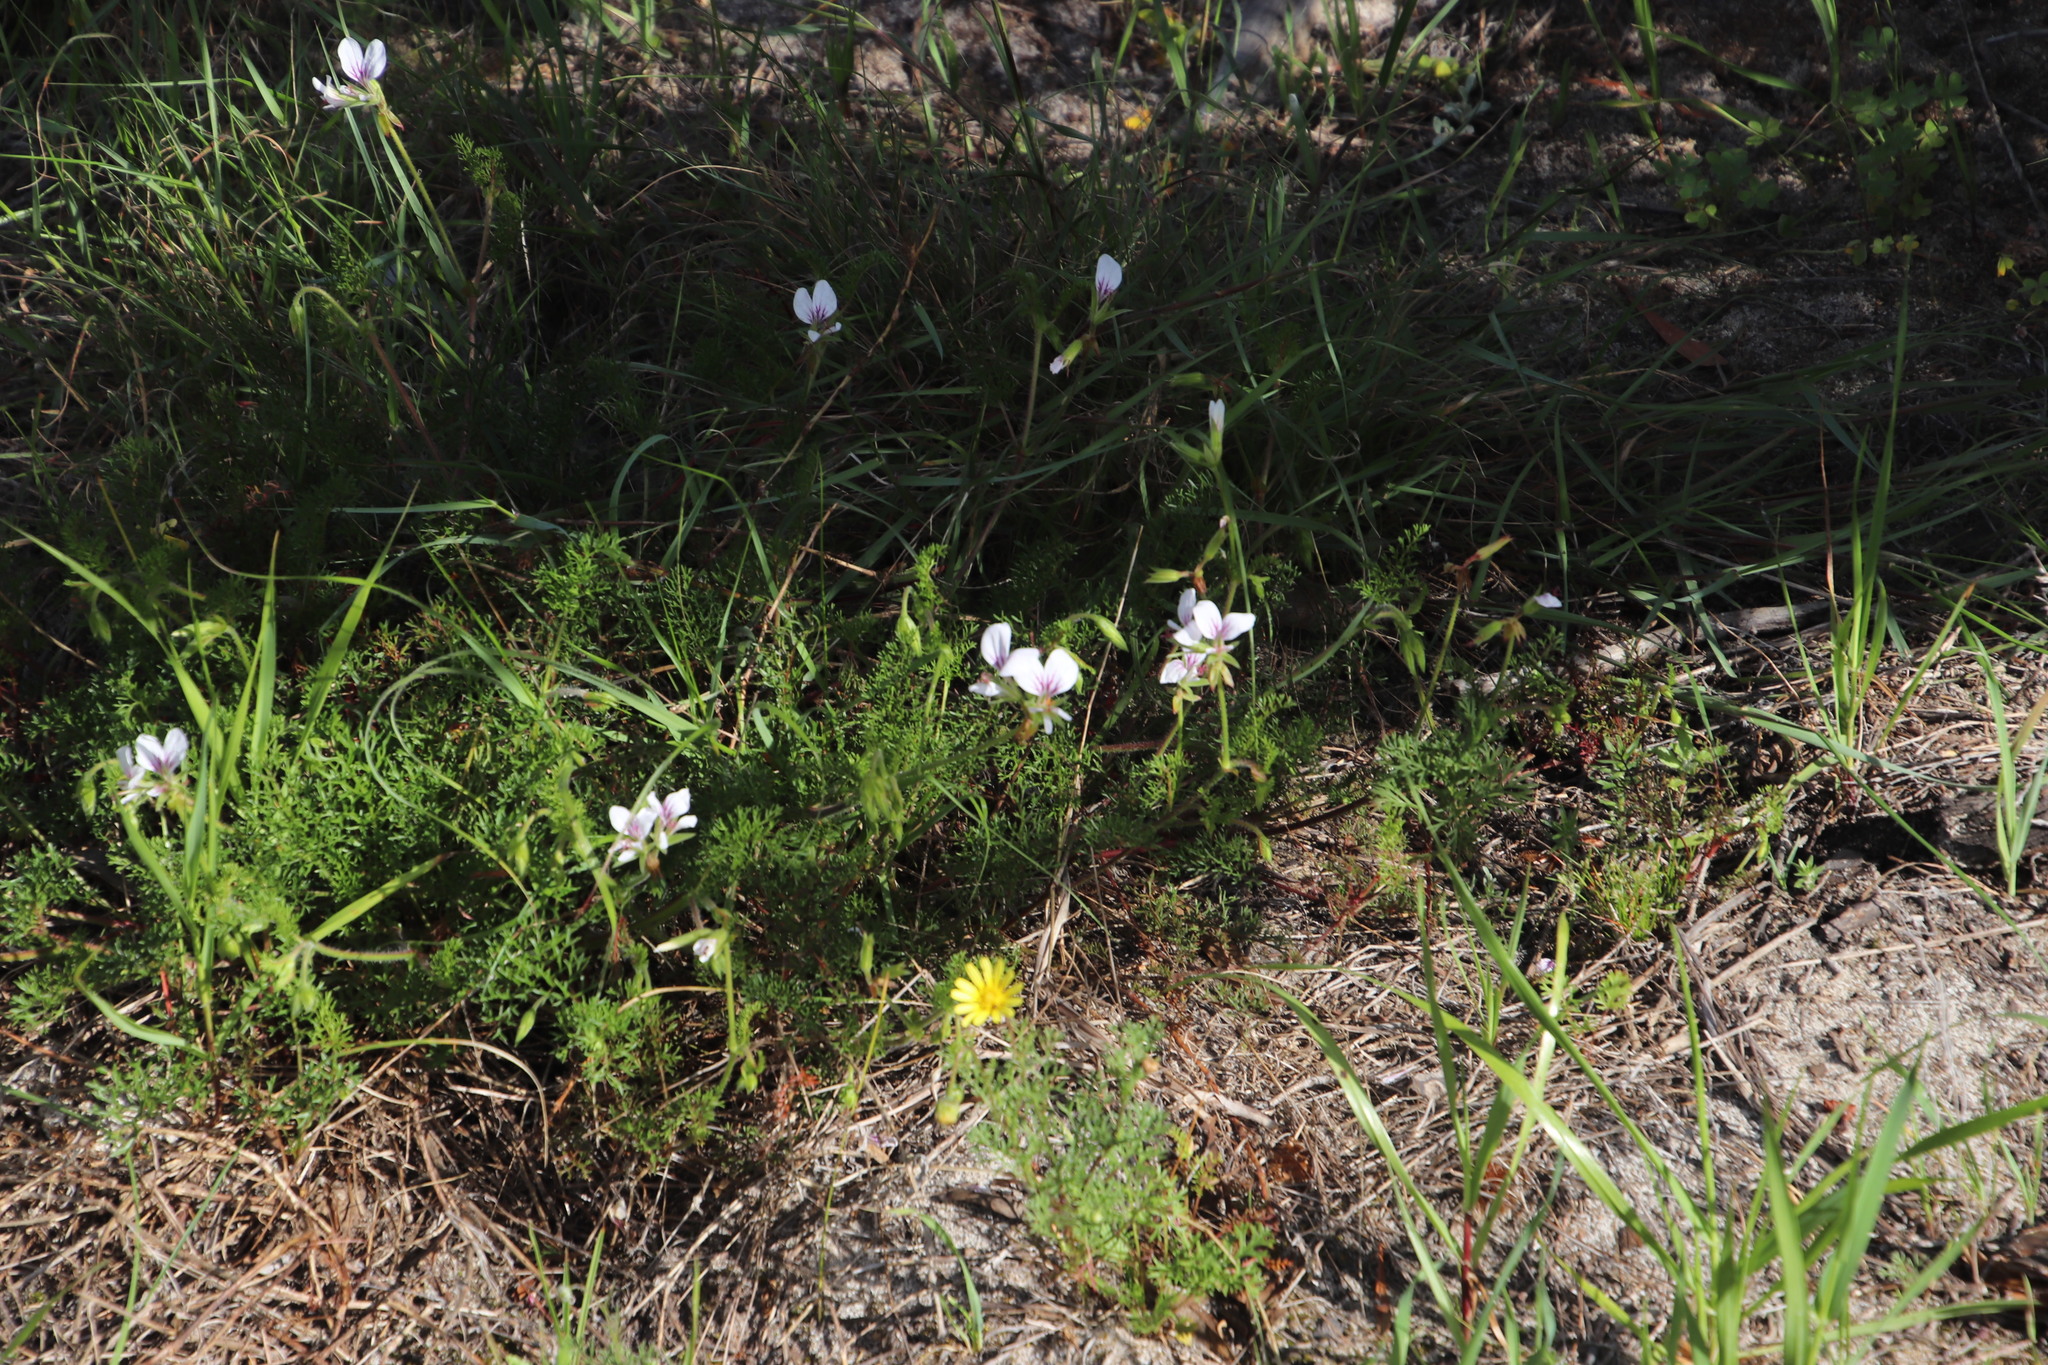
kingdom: Plantae
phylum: Tracheophyta
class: Magnoliopsida
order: Geraniales
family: Geraniaceae
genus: Pelargonium
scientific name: Pelargonium myrrhifolium
